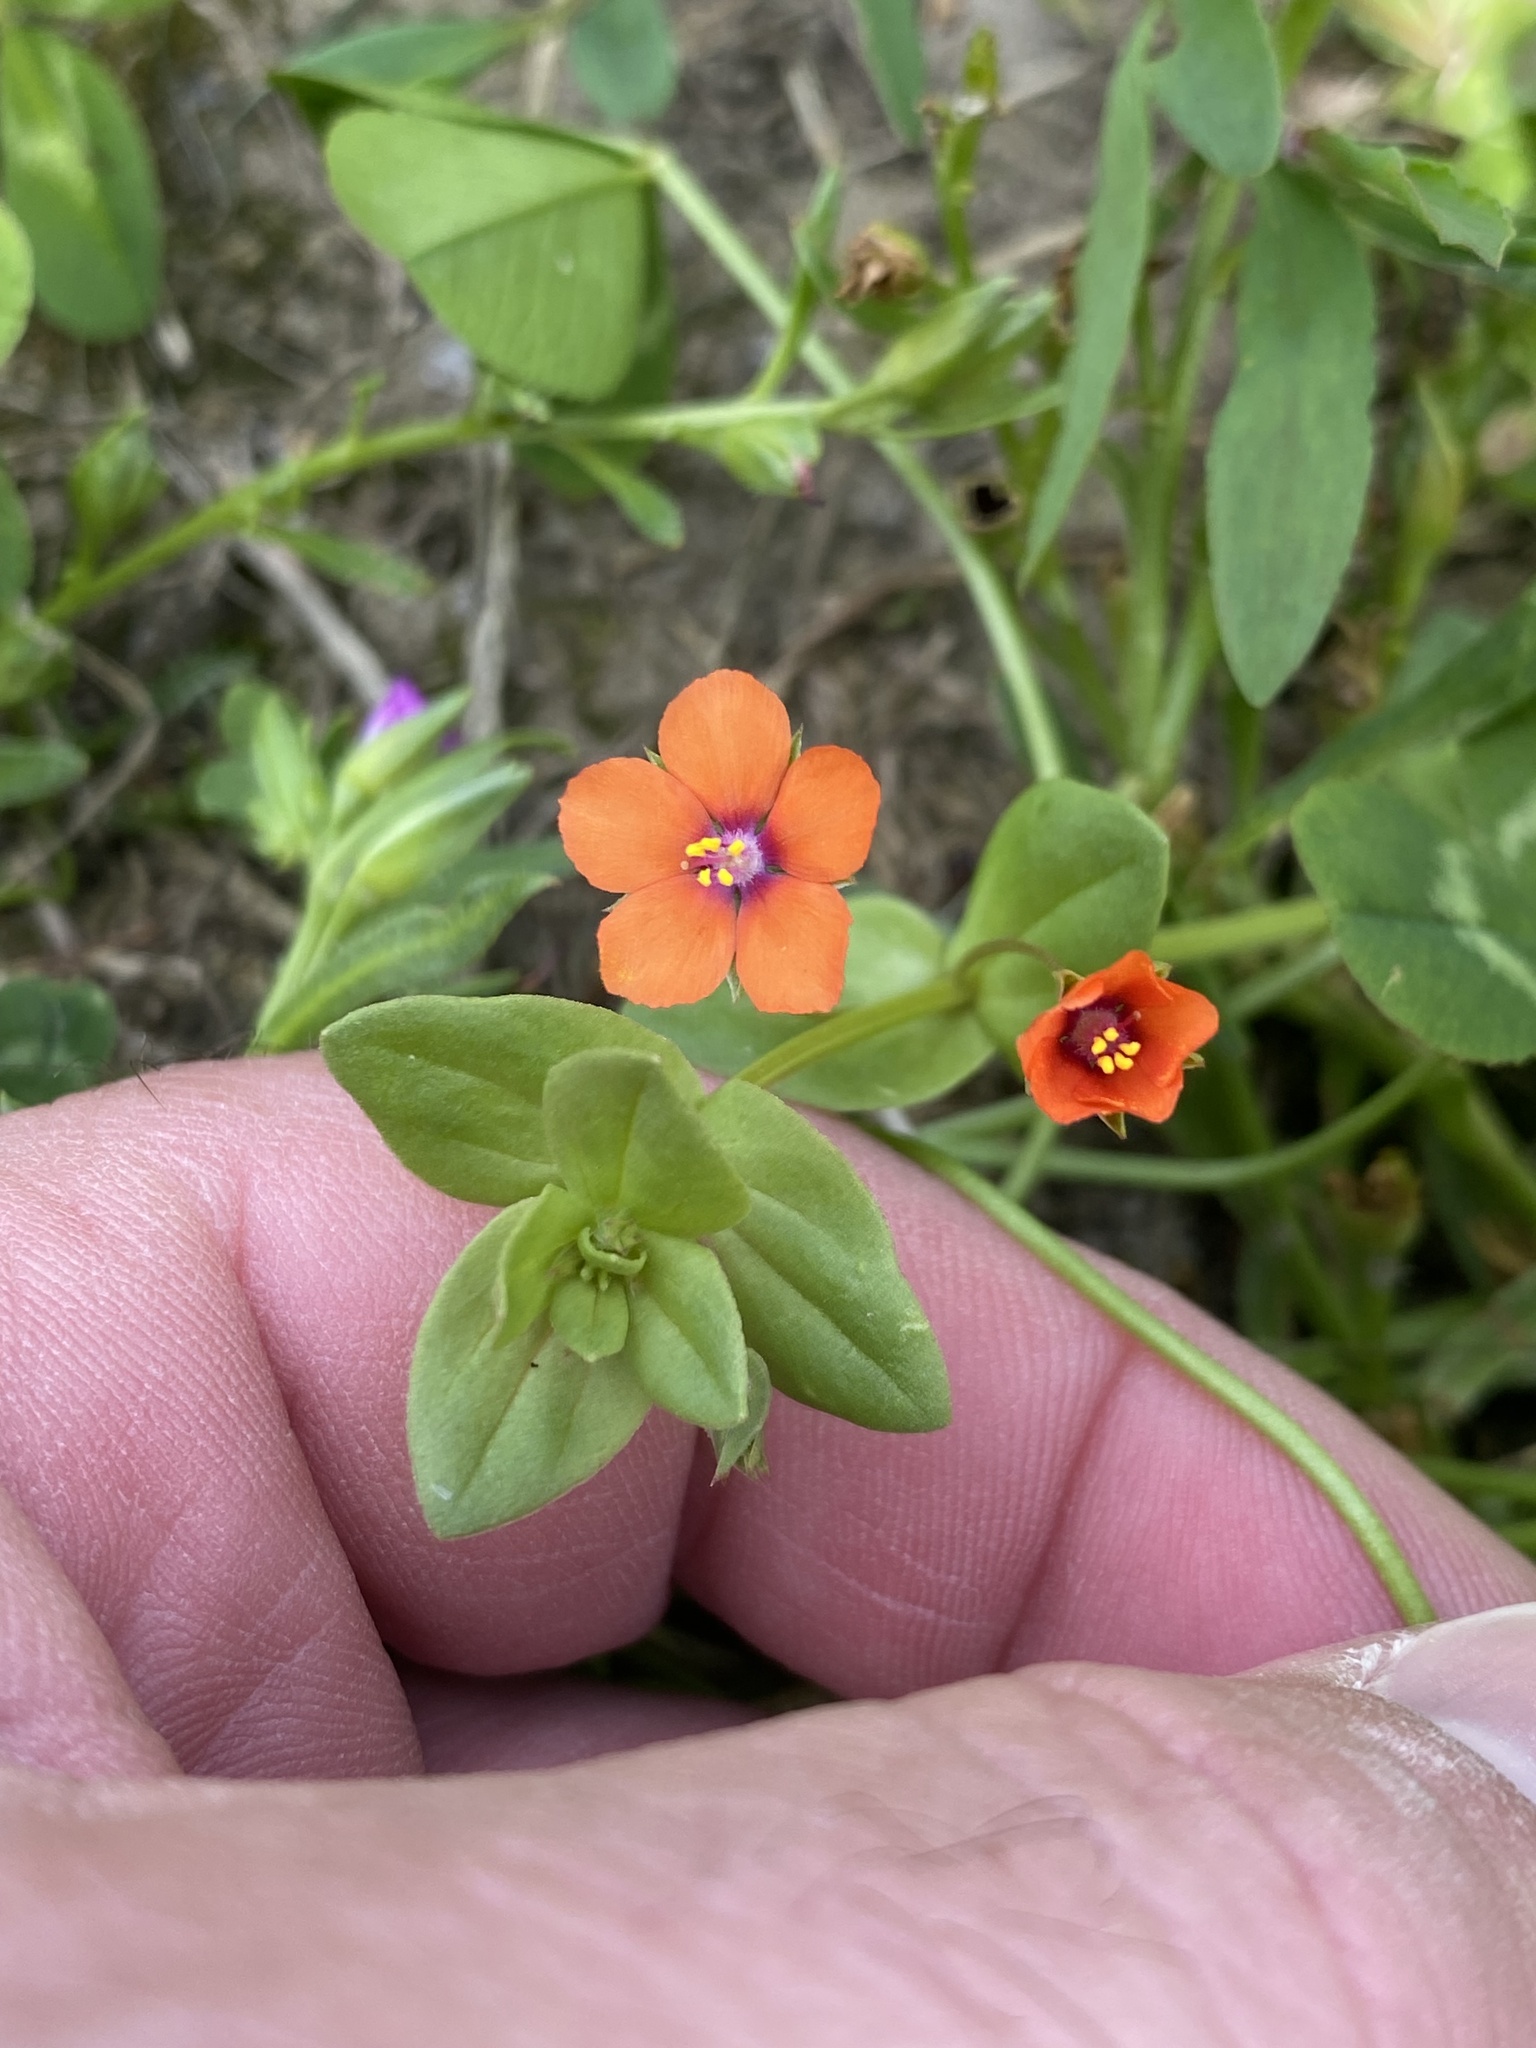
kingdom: Plantae
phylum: Tracheophyta
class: Magnoliopsida
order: Ericales
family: Primulaceae
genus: Lysimachia
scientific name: Lysimachia arvensis
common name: Scarlet pimpernel
